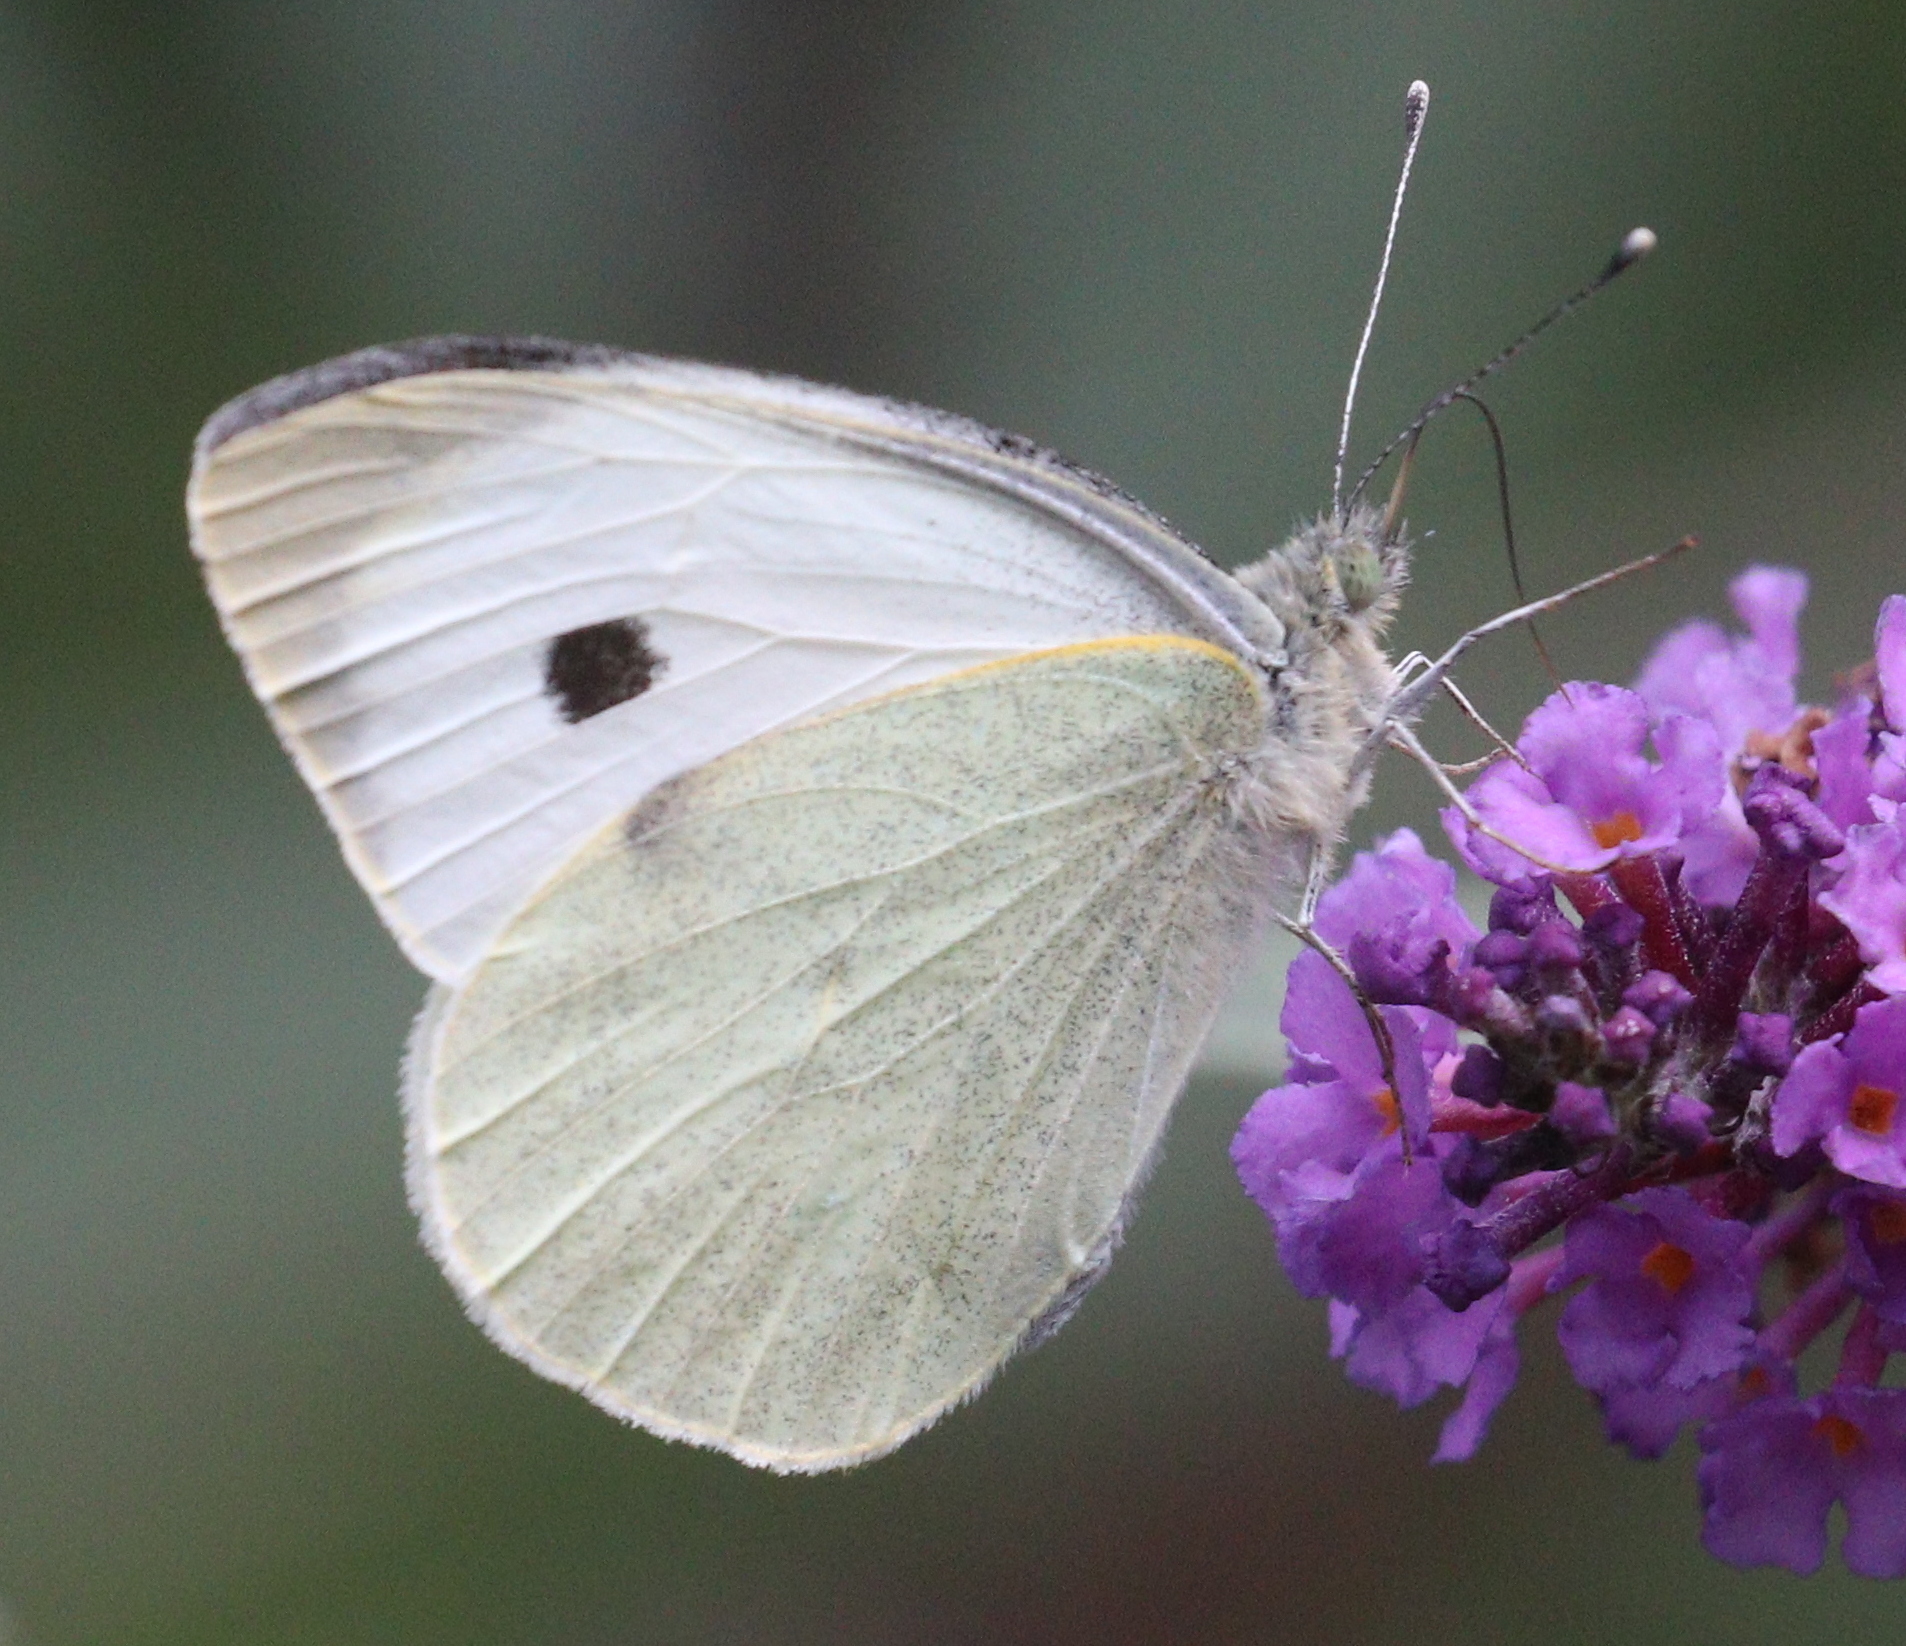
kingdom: Animalia
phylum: Arthropoda
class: Insecta
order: Lepidoptera
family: Pieridae
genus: Pieris
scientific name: Pieris brassicae
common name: Large white
